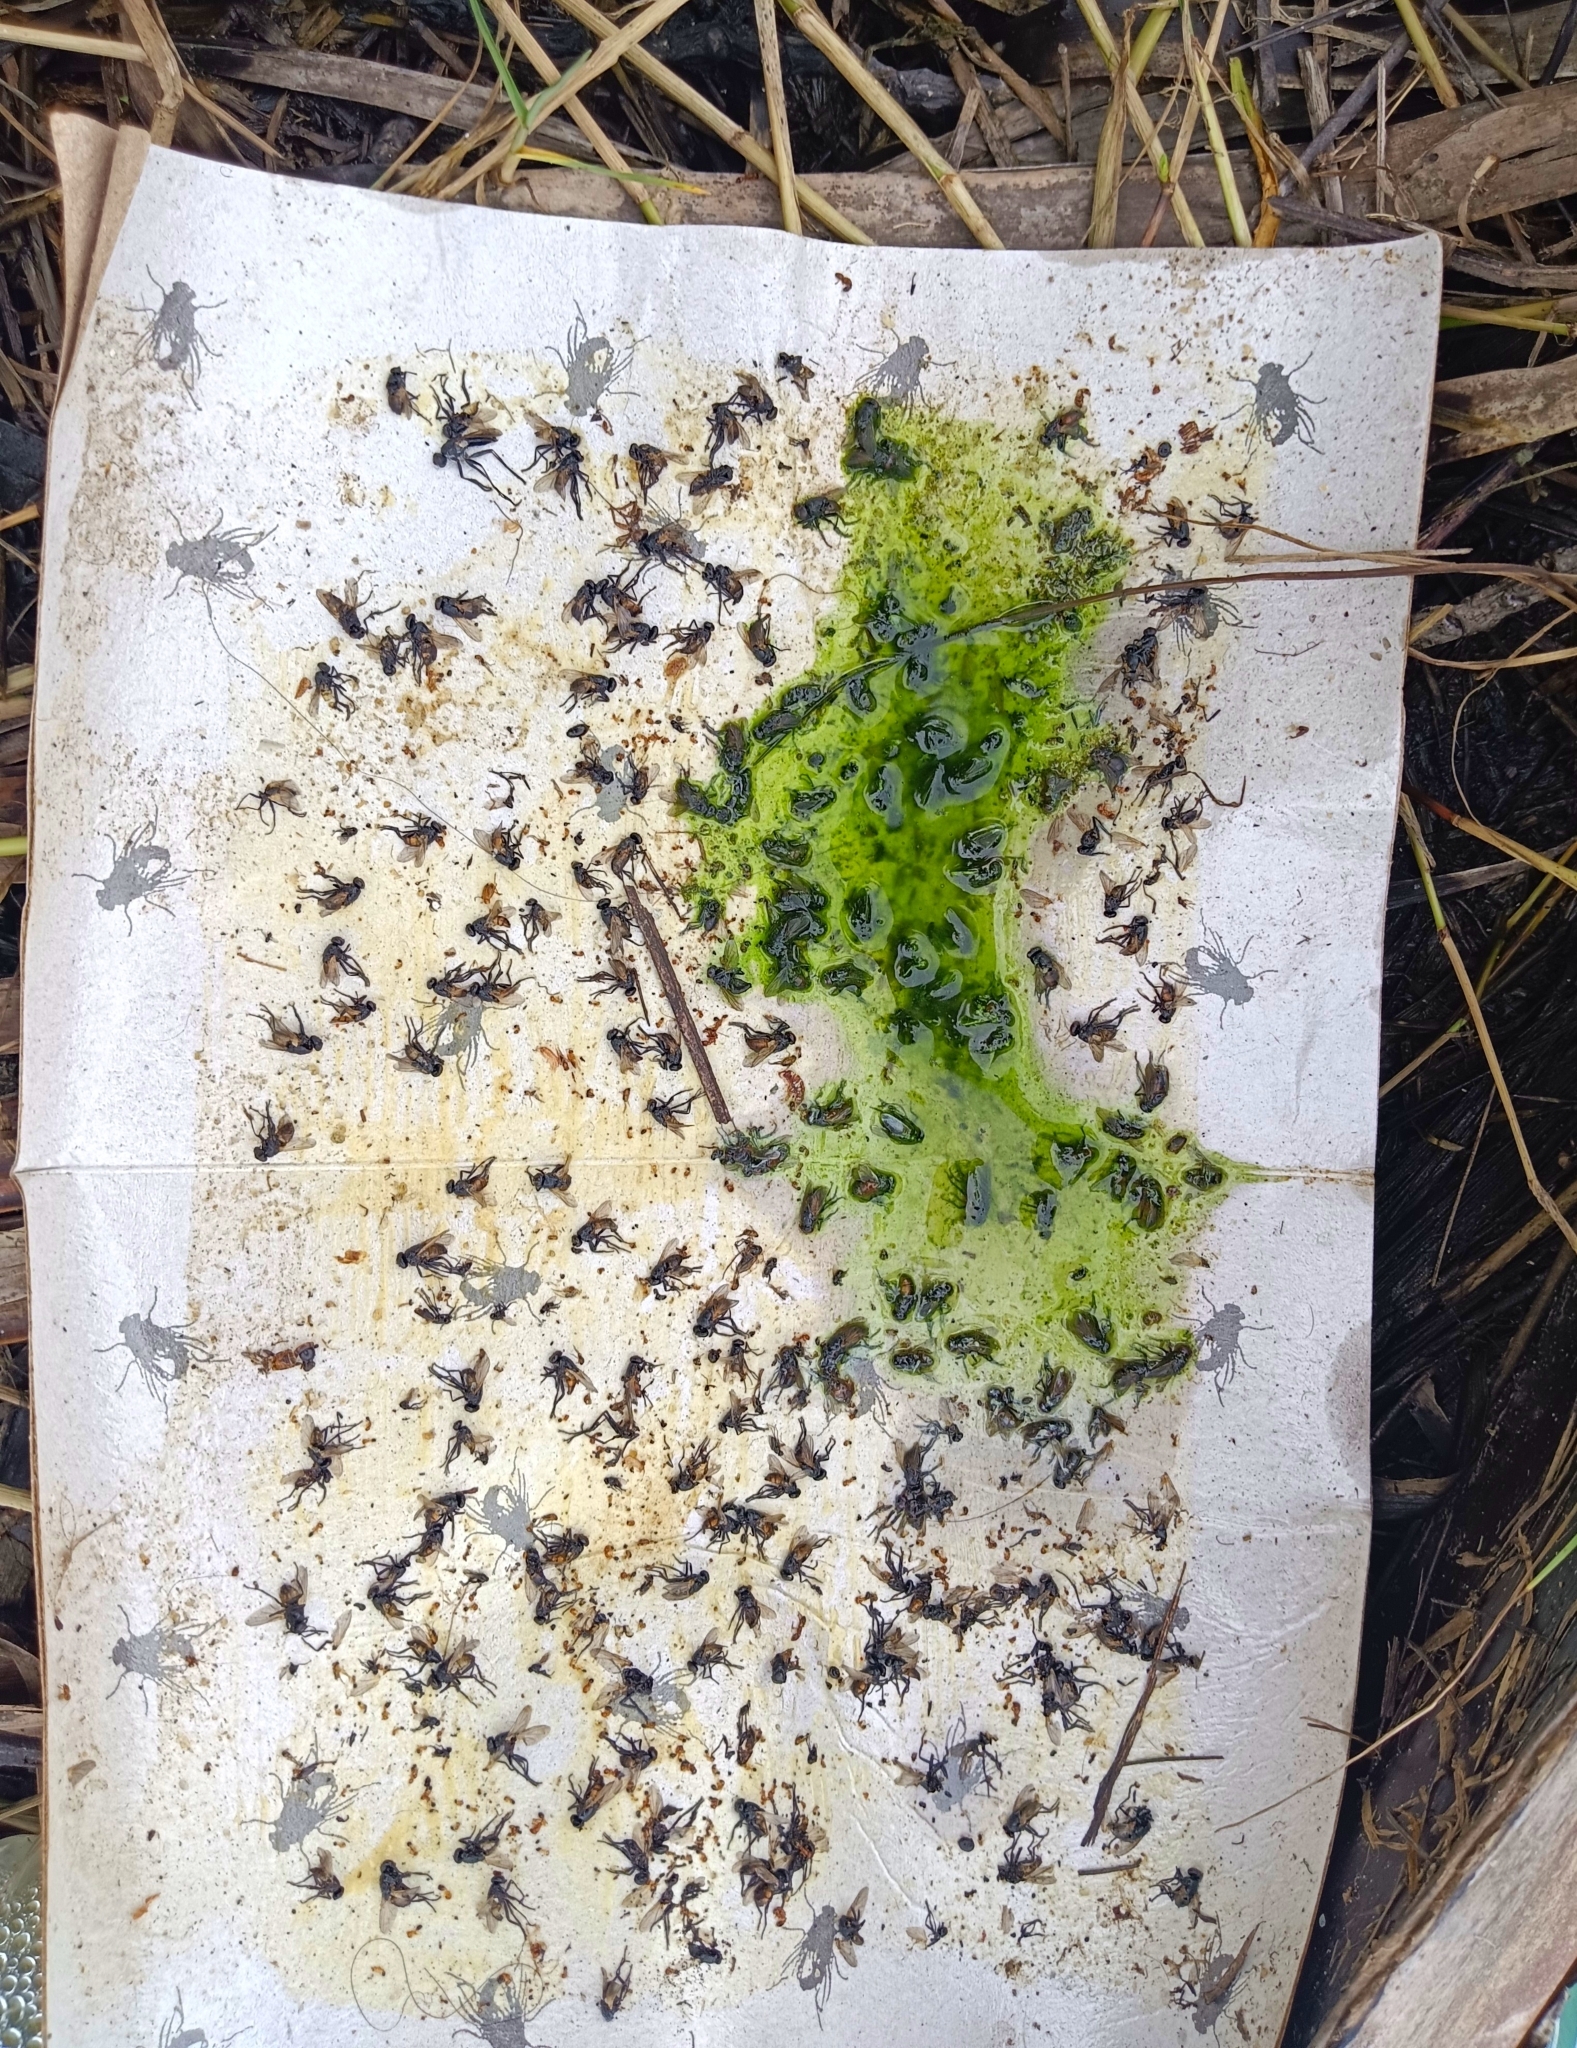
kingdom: Animalia
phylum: Arthropoda
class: Insecta
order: Diptera
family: Muscidae
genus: Musca
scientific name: Musca domestica
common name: House fly
